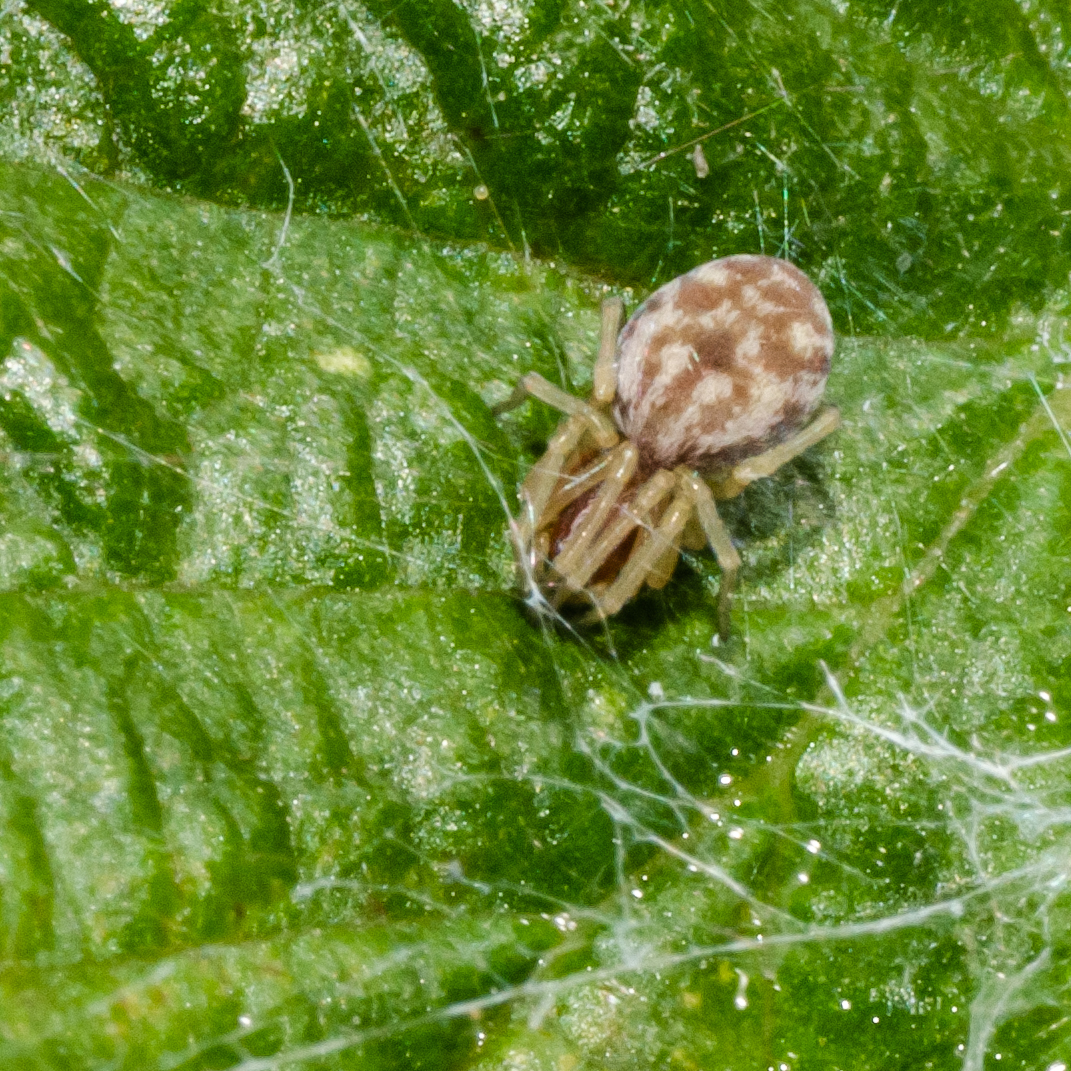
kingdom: Animalia
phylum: Arthropoda
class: Arachnida
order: Araneae
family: Dictynidae
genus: Nigma
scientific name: Nigma flavescens
